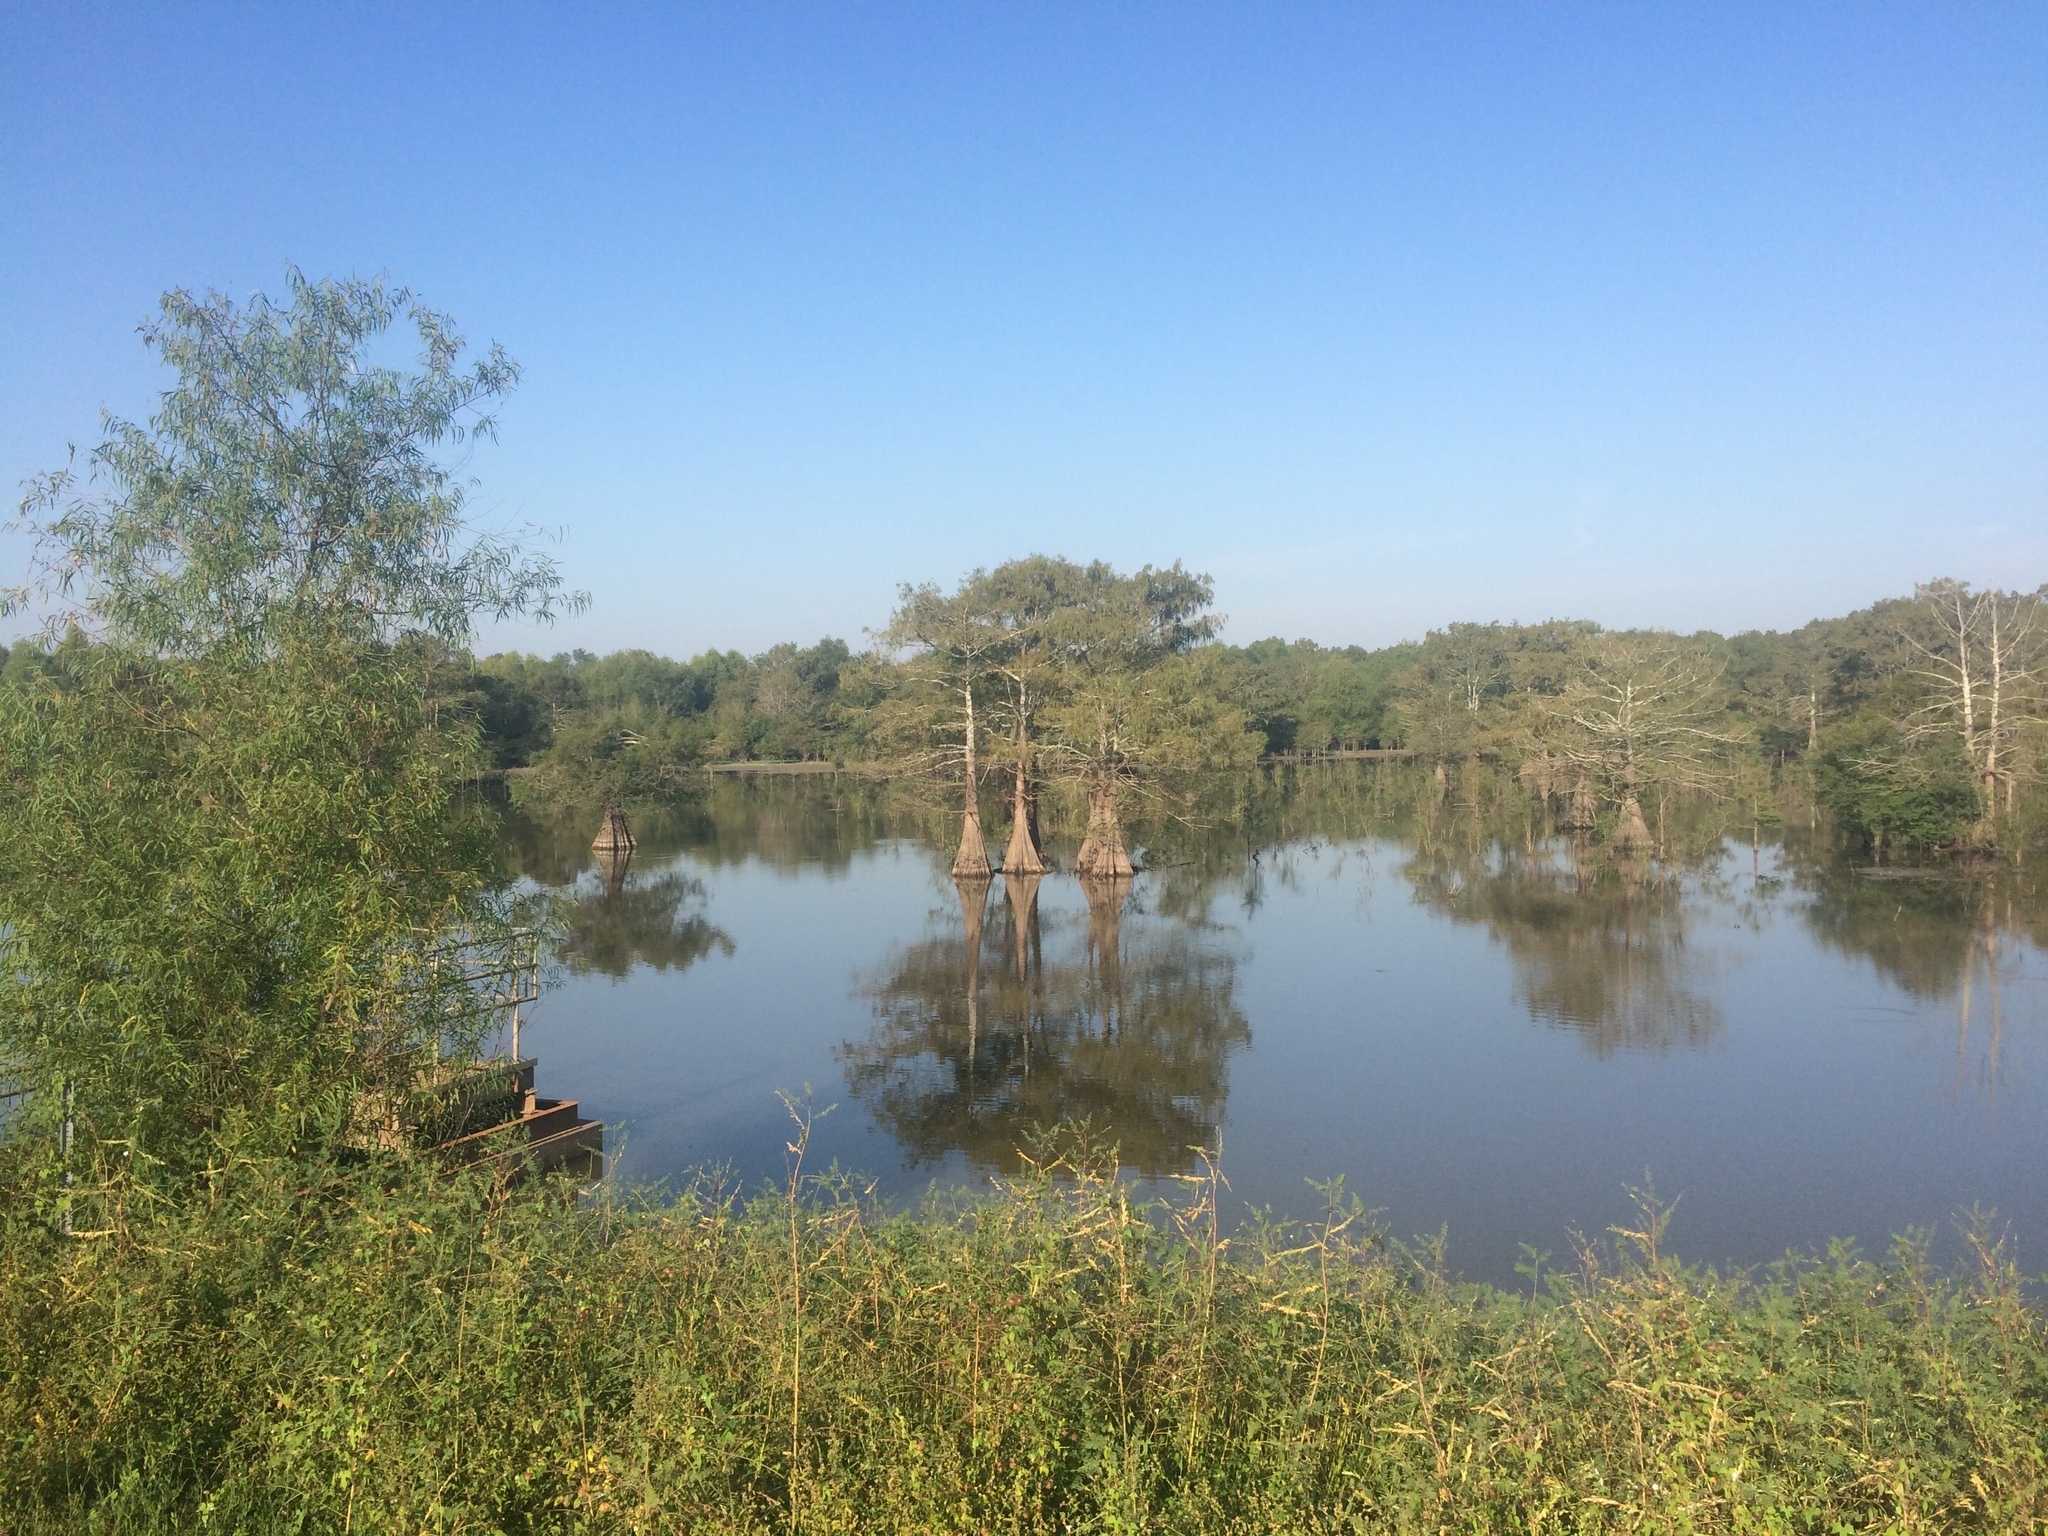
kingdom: Plantae
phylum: Tracheophyta
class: Pinopsida
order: Pinales
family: Cupressaceae
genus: Taxodium
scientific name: Taxodium distichum
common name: Bald cypress
